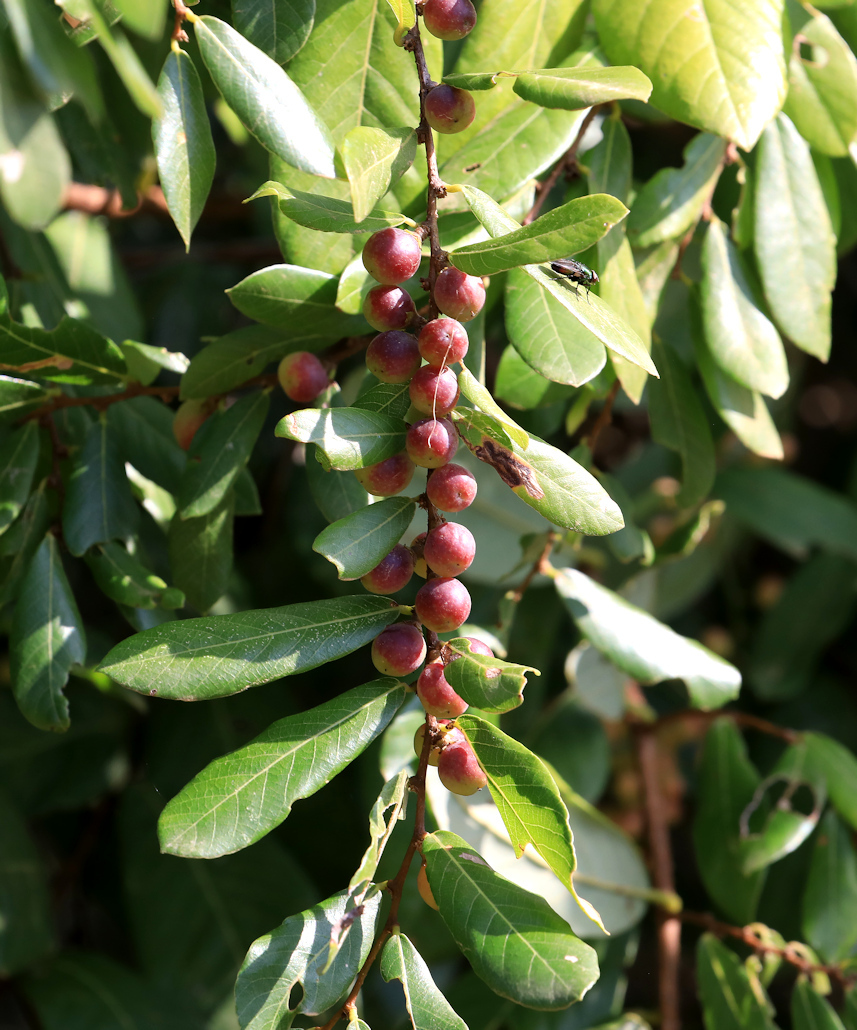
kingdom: Plantae
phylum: Tracheophyta
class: Magnoliopsida
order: Malpighiales
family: Phyllanthaceae
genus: Bridelia
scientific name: Bridelia cathartica
